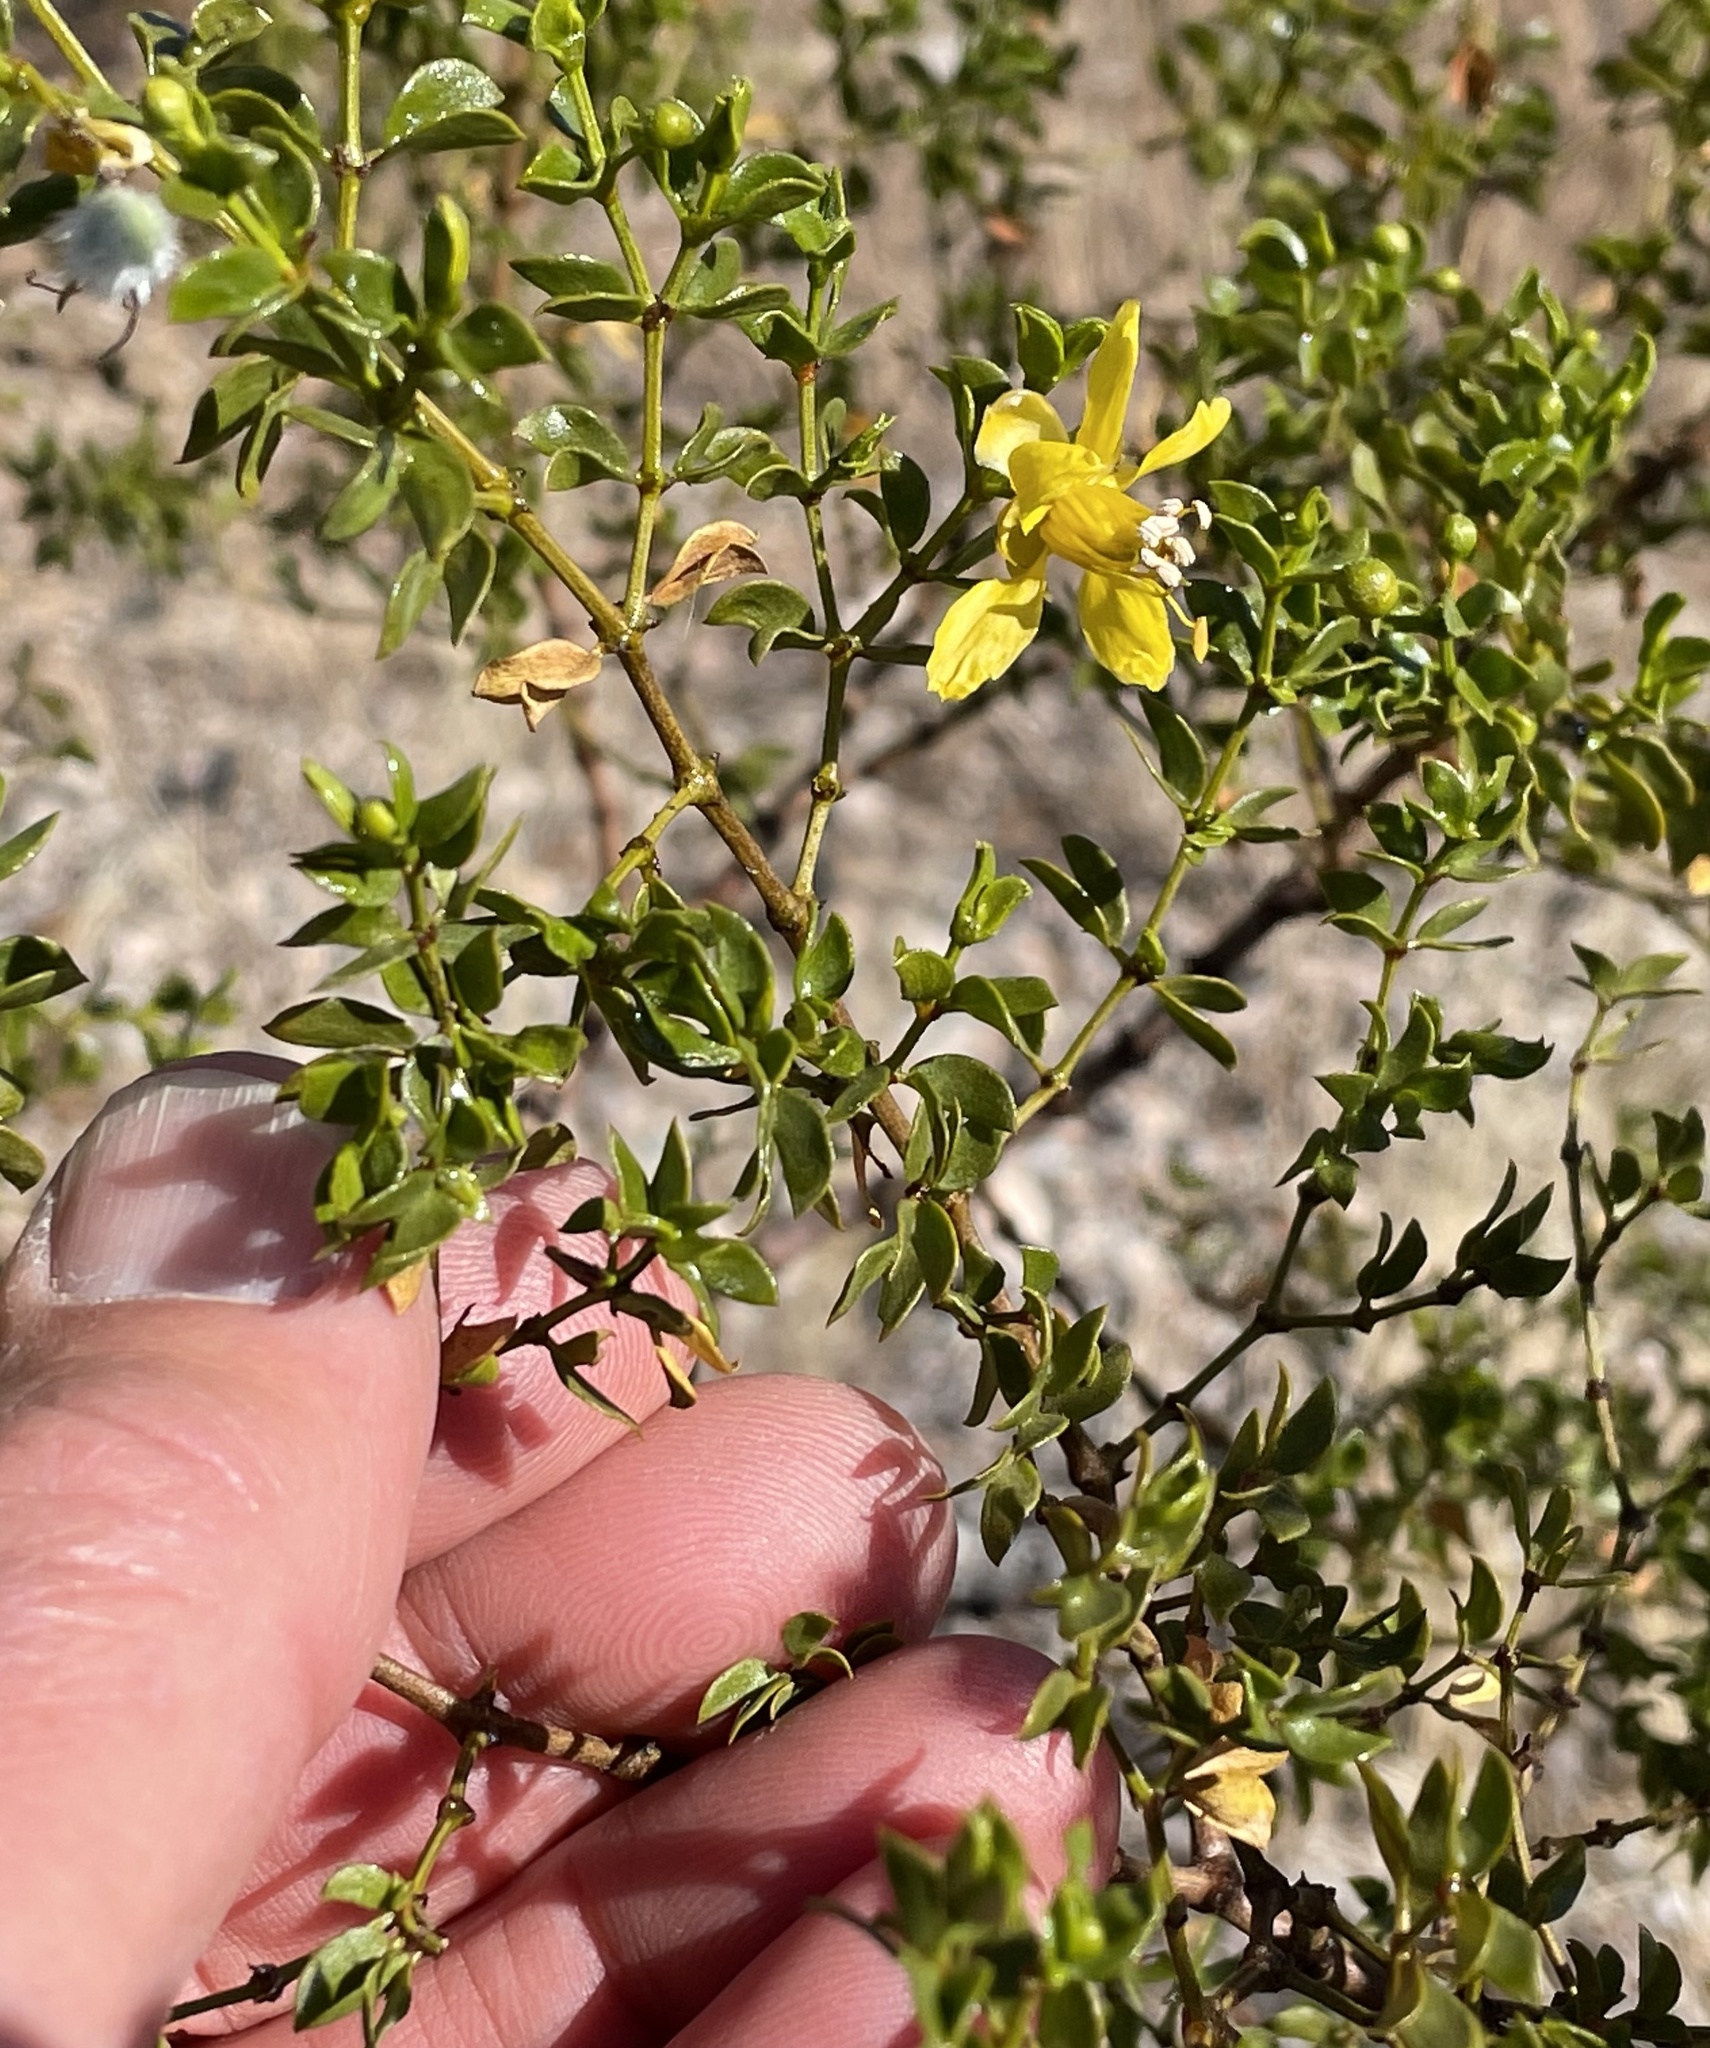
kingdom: Plantae
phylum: Tracheophyta
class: Magnoliopsida
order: Zygophyllales
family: Zygophyllaceae
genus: Larrea
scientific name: Larrea tridentata
